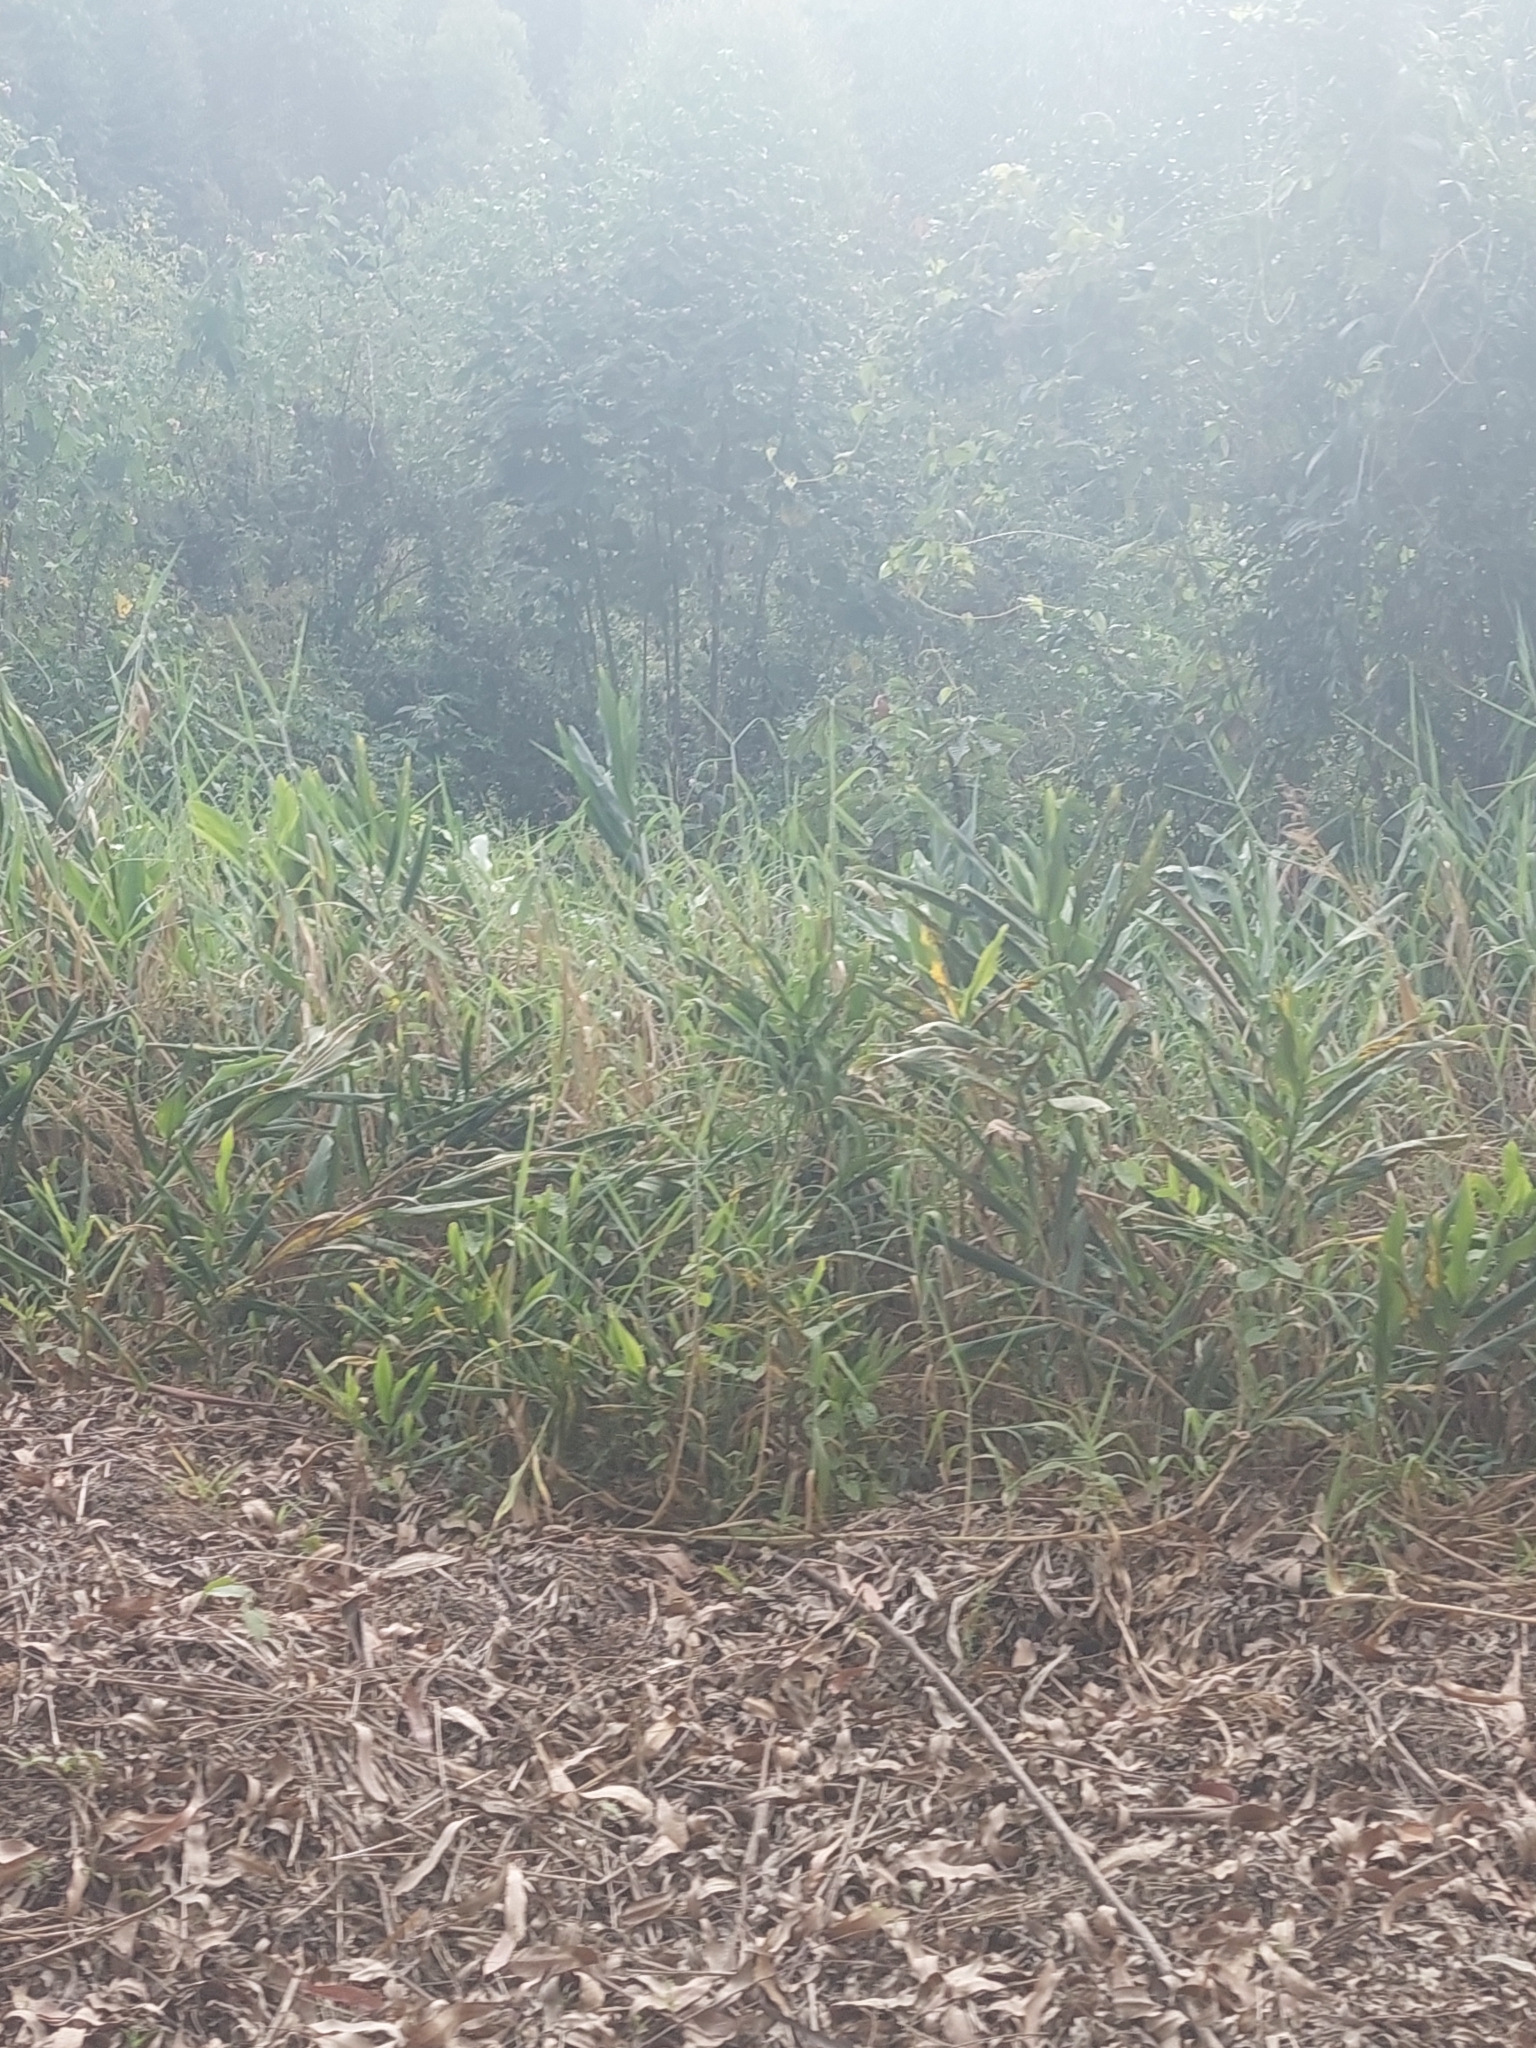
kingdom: Plantae
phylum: Tracheophyta
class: Liliopsida
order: Zingiberales
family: Zingiberaceae
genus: Hedychium
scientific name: Hedychium coronarium
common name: White garland-lily
